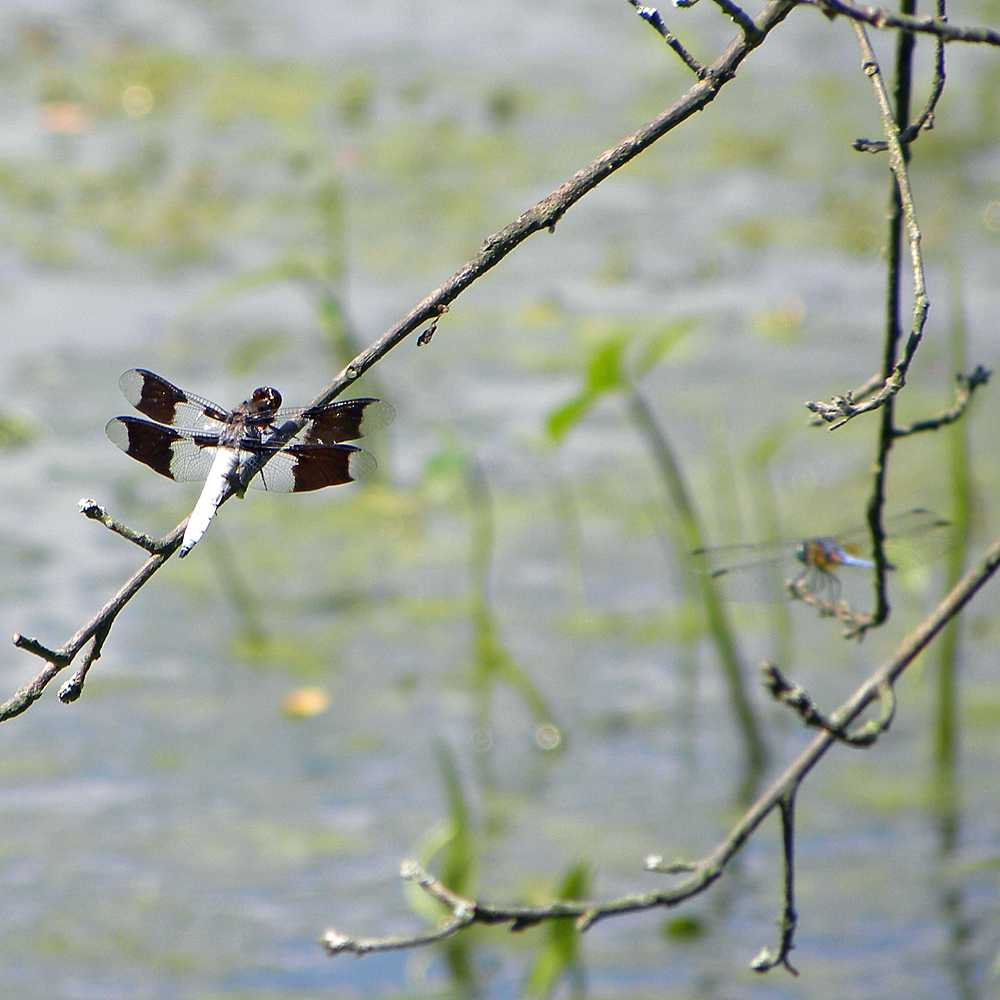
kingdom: Animalia
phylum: Arthropoda
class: Insecta
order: Odonata
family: Libellulidae
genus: Plathemis
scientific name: Plathemis lydia
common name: Common whitetail
